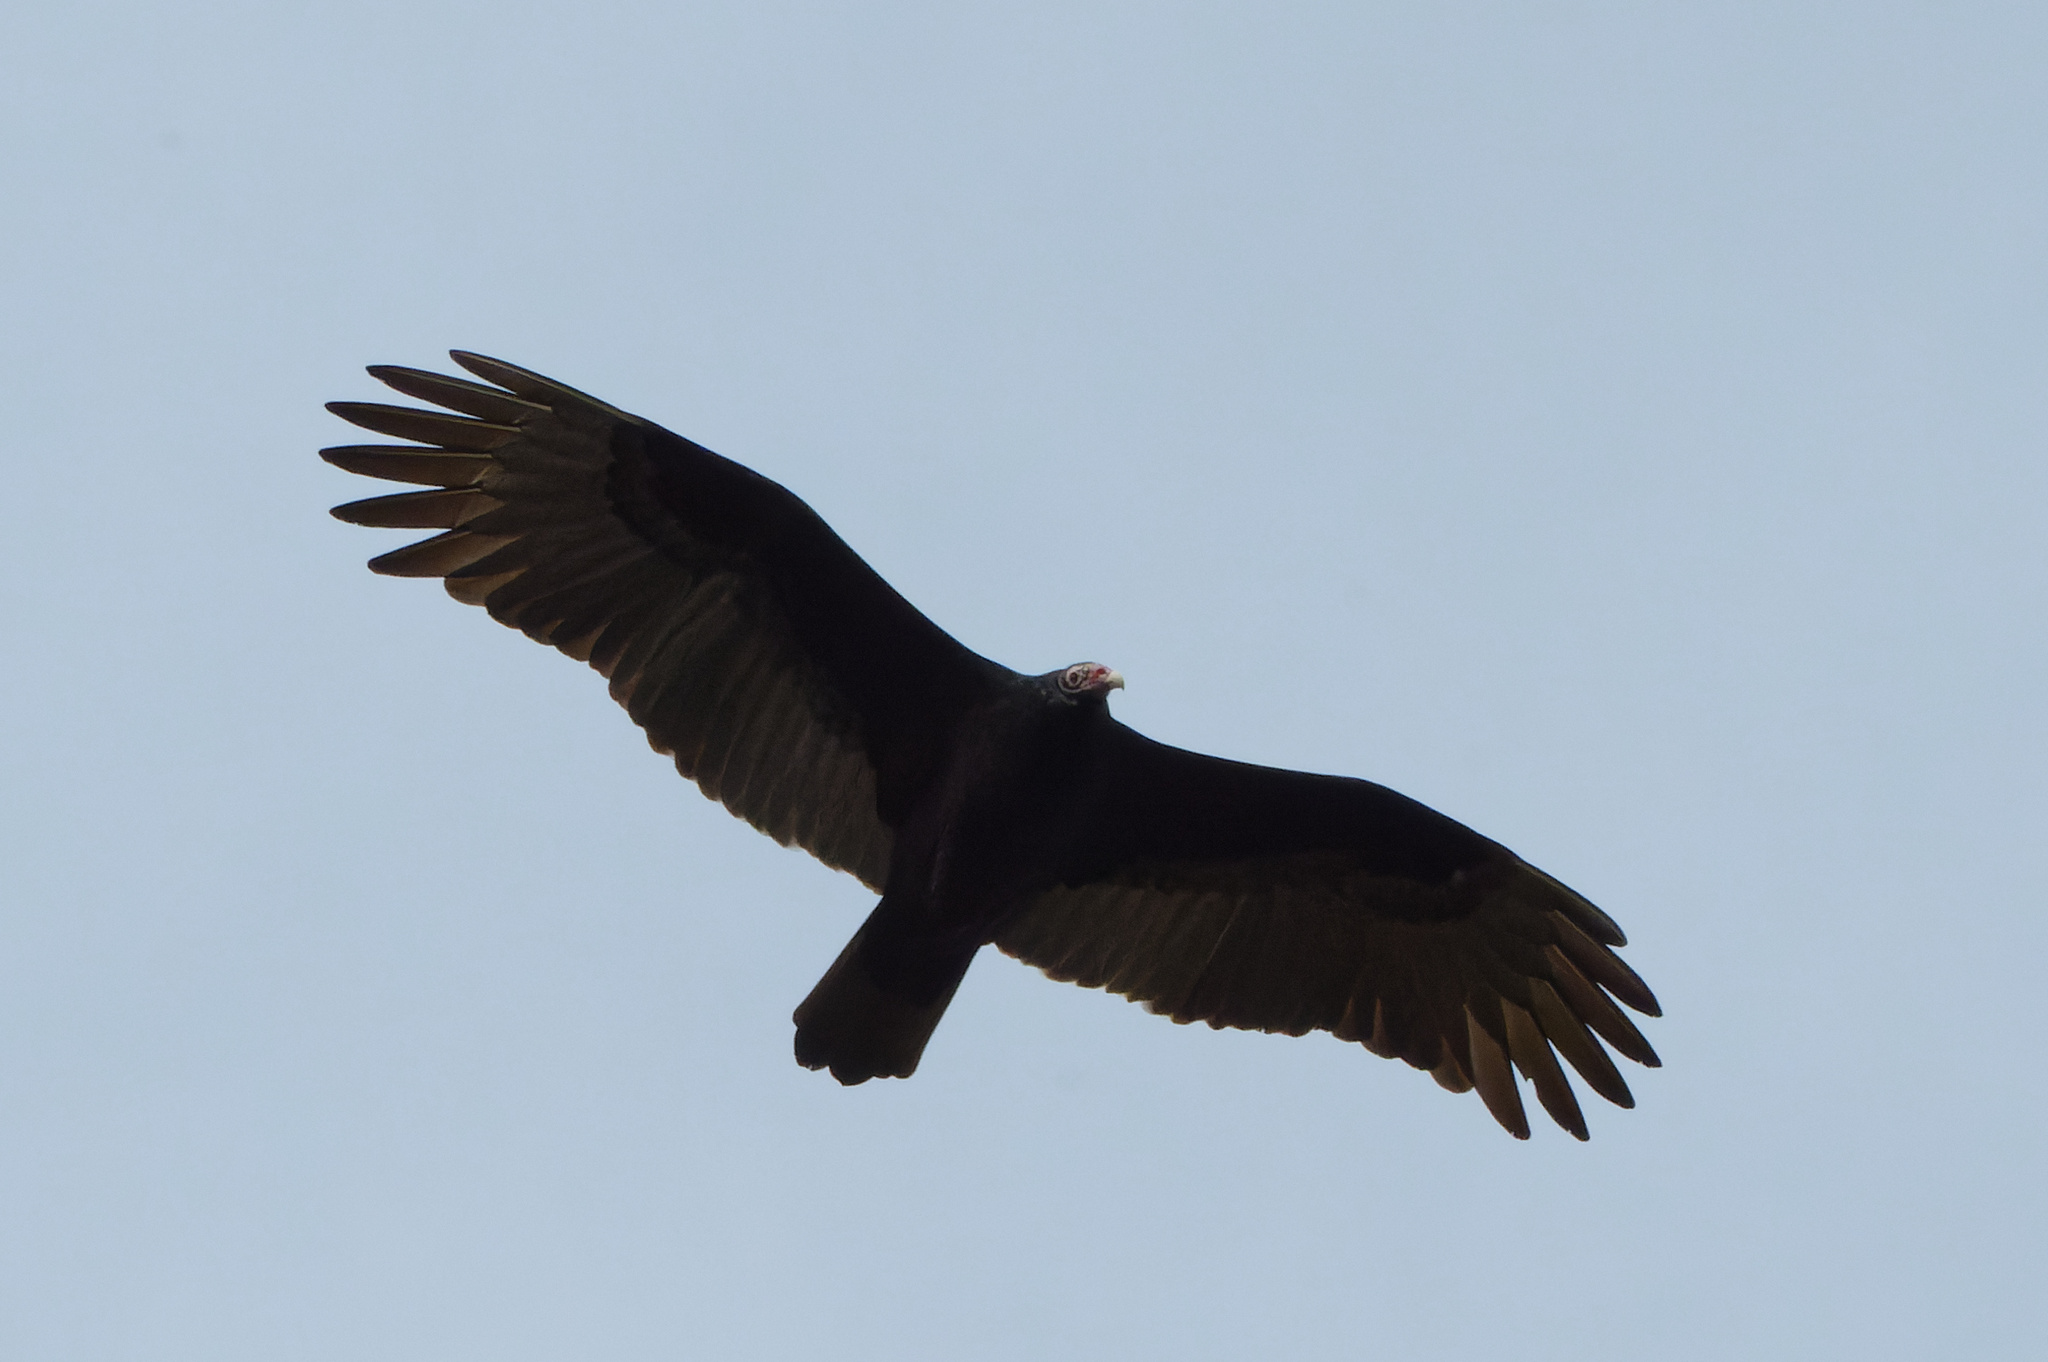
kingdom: Animalia
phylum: Chordata
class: Aves
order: Accipitriformes
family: Cathartidae
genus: Cathartes
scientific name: Cathartes aura
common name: Turkey vulture
